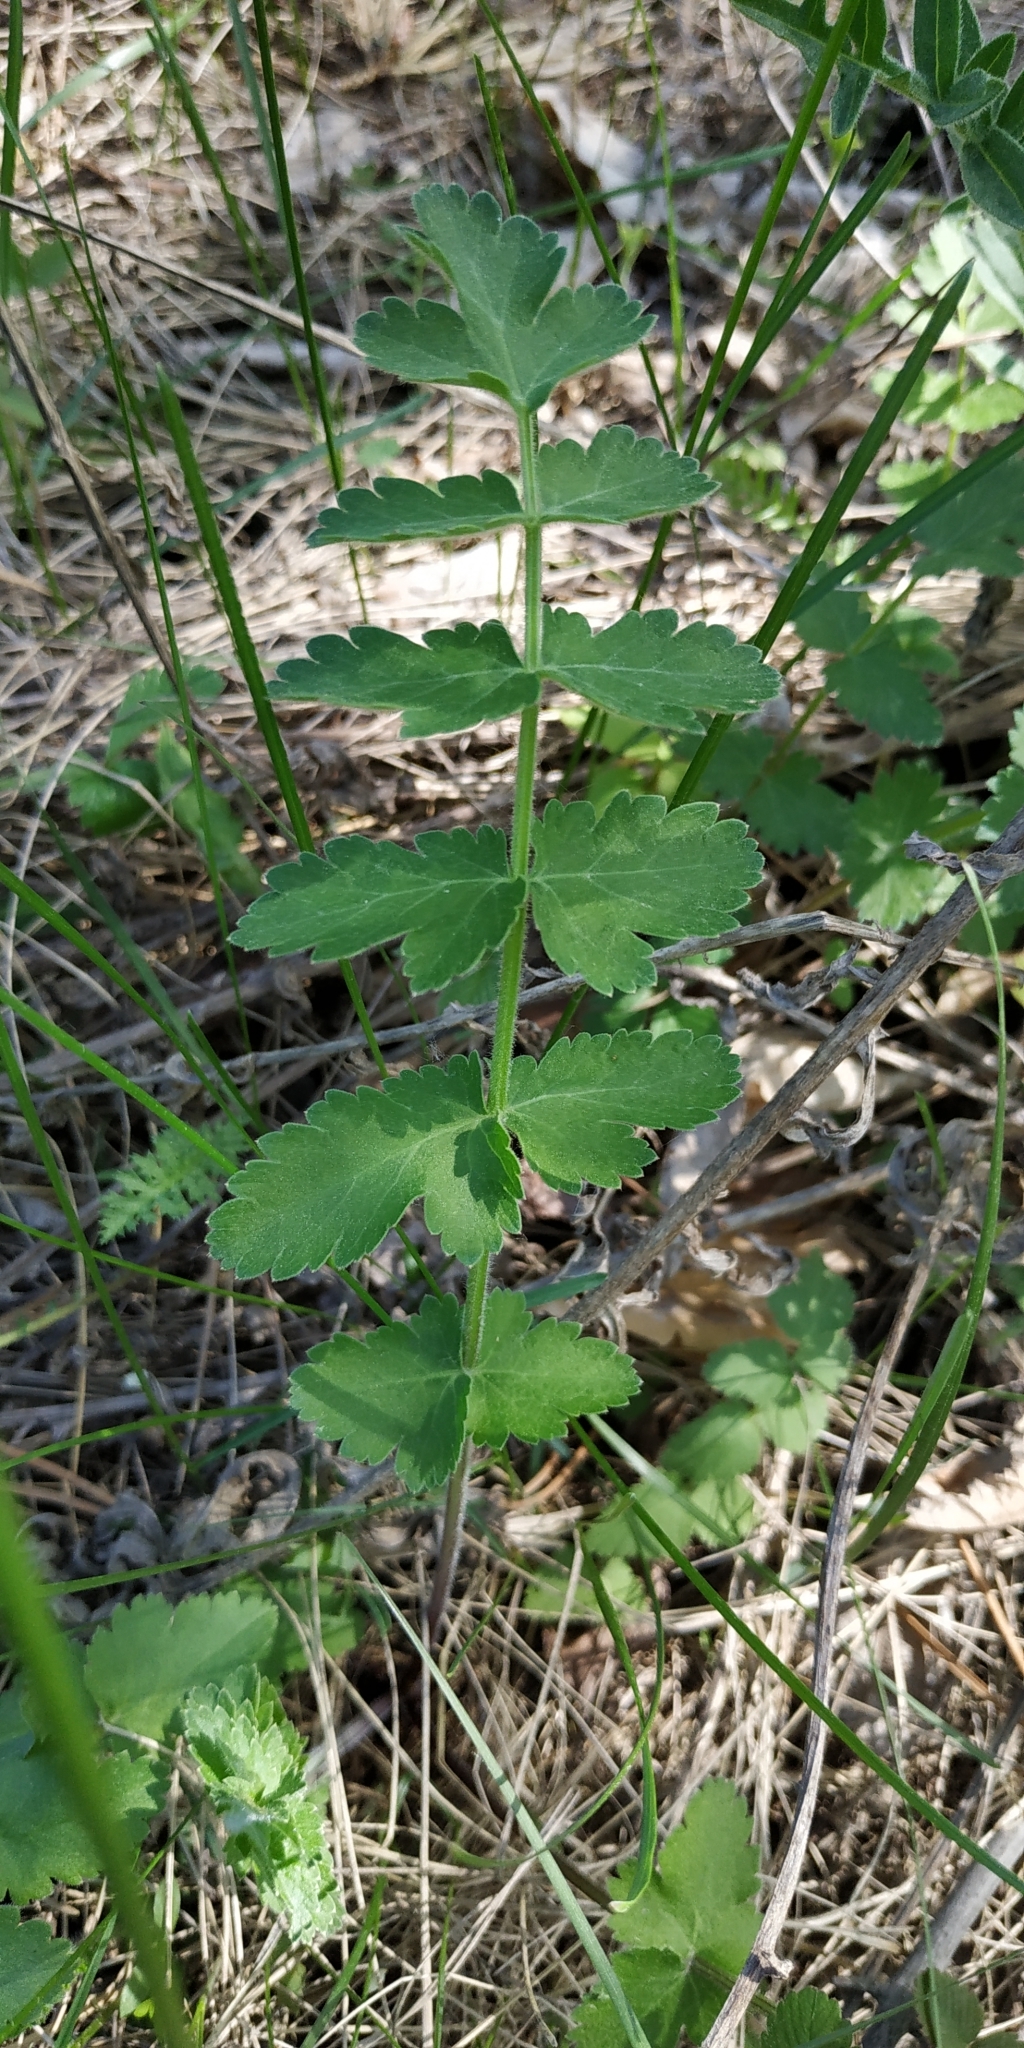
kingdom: Plantae
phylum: Tracheophyta
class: Magnoliopsida
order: Apiales
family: Apiaceae
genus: Pimpinella
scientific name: Pimpinella saxifraga
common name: Burnet-saxifrage
